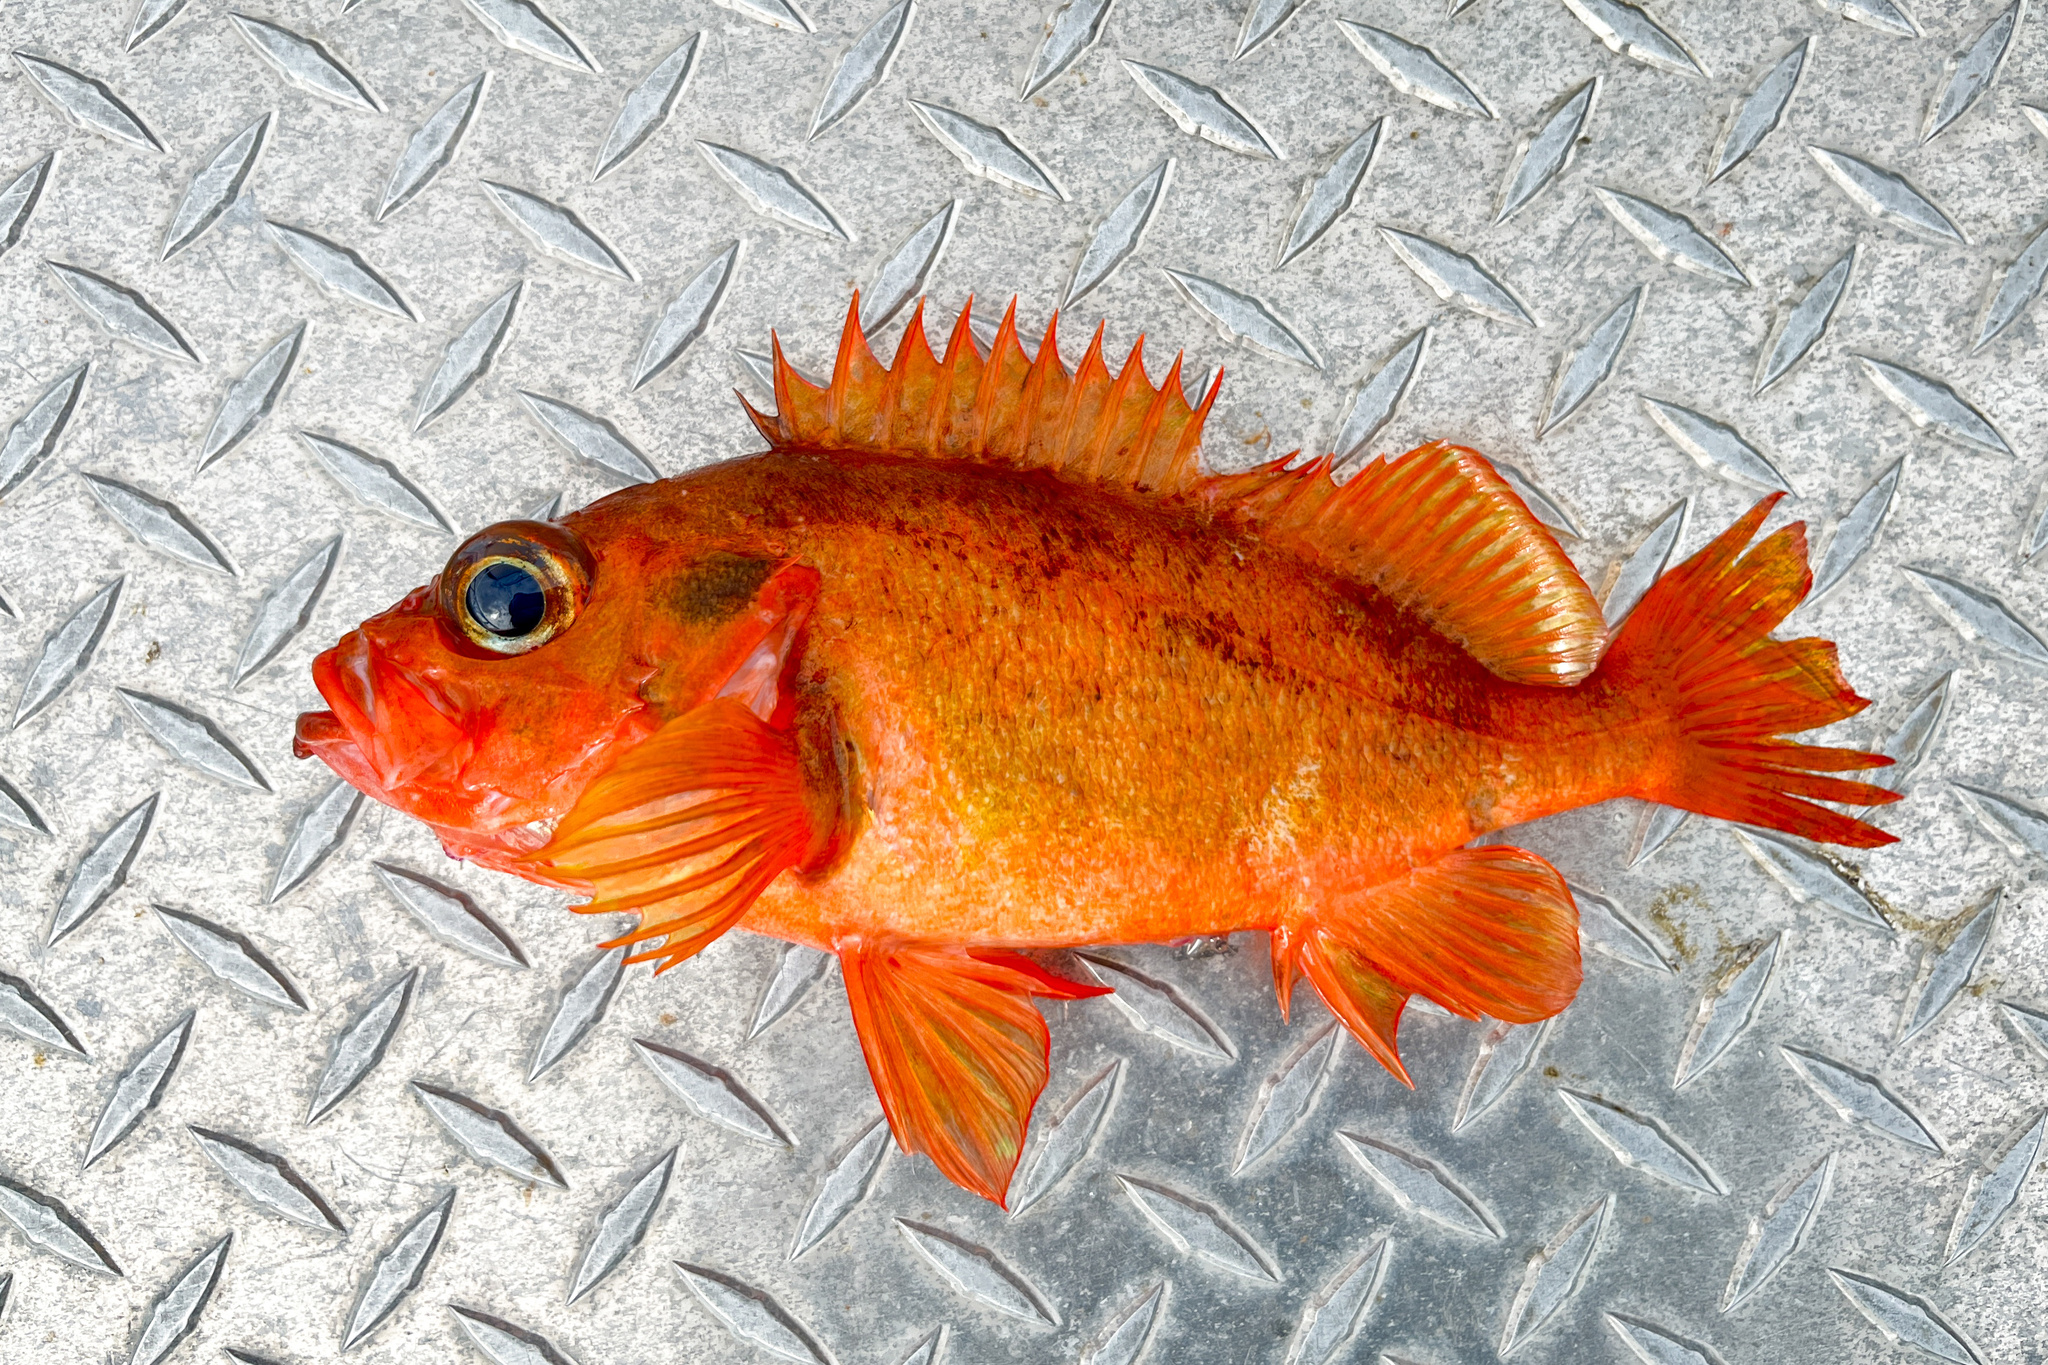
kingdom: Animalia
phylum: Chordata
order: Scorpaeniformes
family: Sebastidae
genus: Sebastes
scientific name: Sebastes viviparus
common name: Norway haddock
